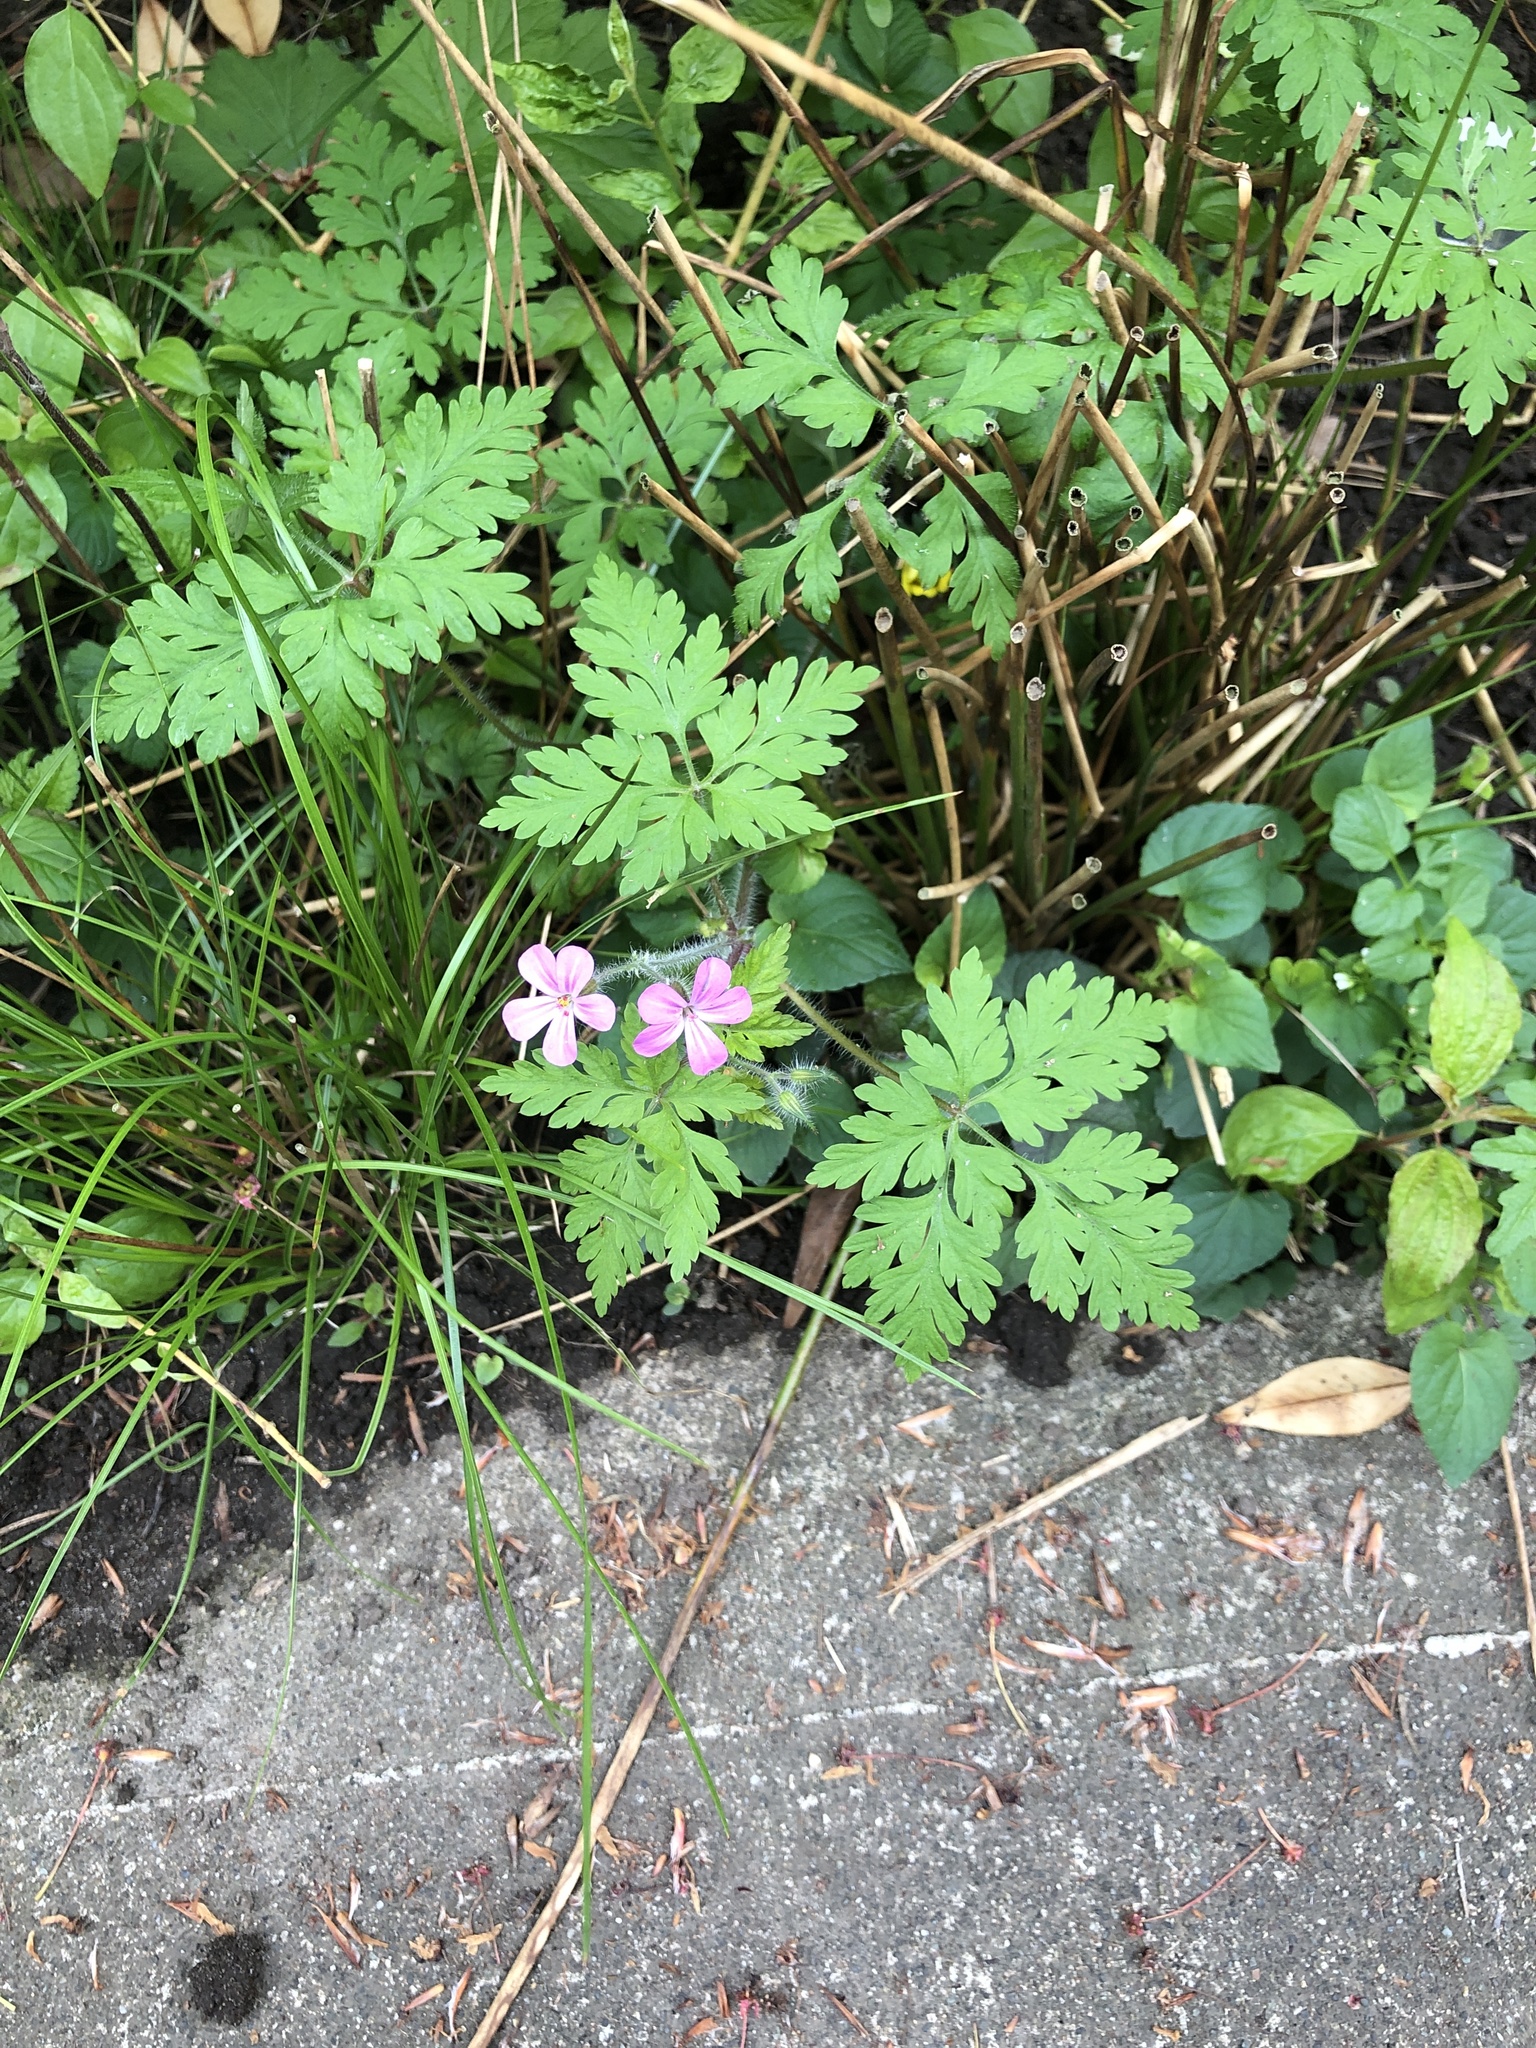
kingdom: Plantae
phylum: Tracheophyta
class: Magnoliopsida
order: Geraniales
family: Geraniaceae
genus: Geranium
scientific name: Geranium robertianum
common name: Herb-robert
